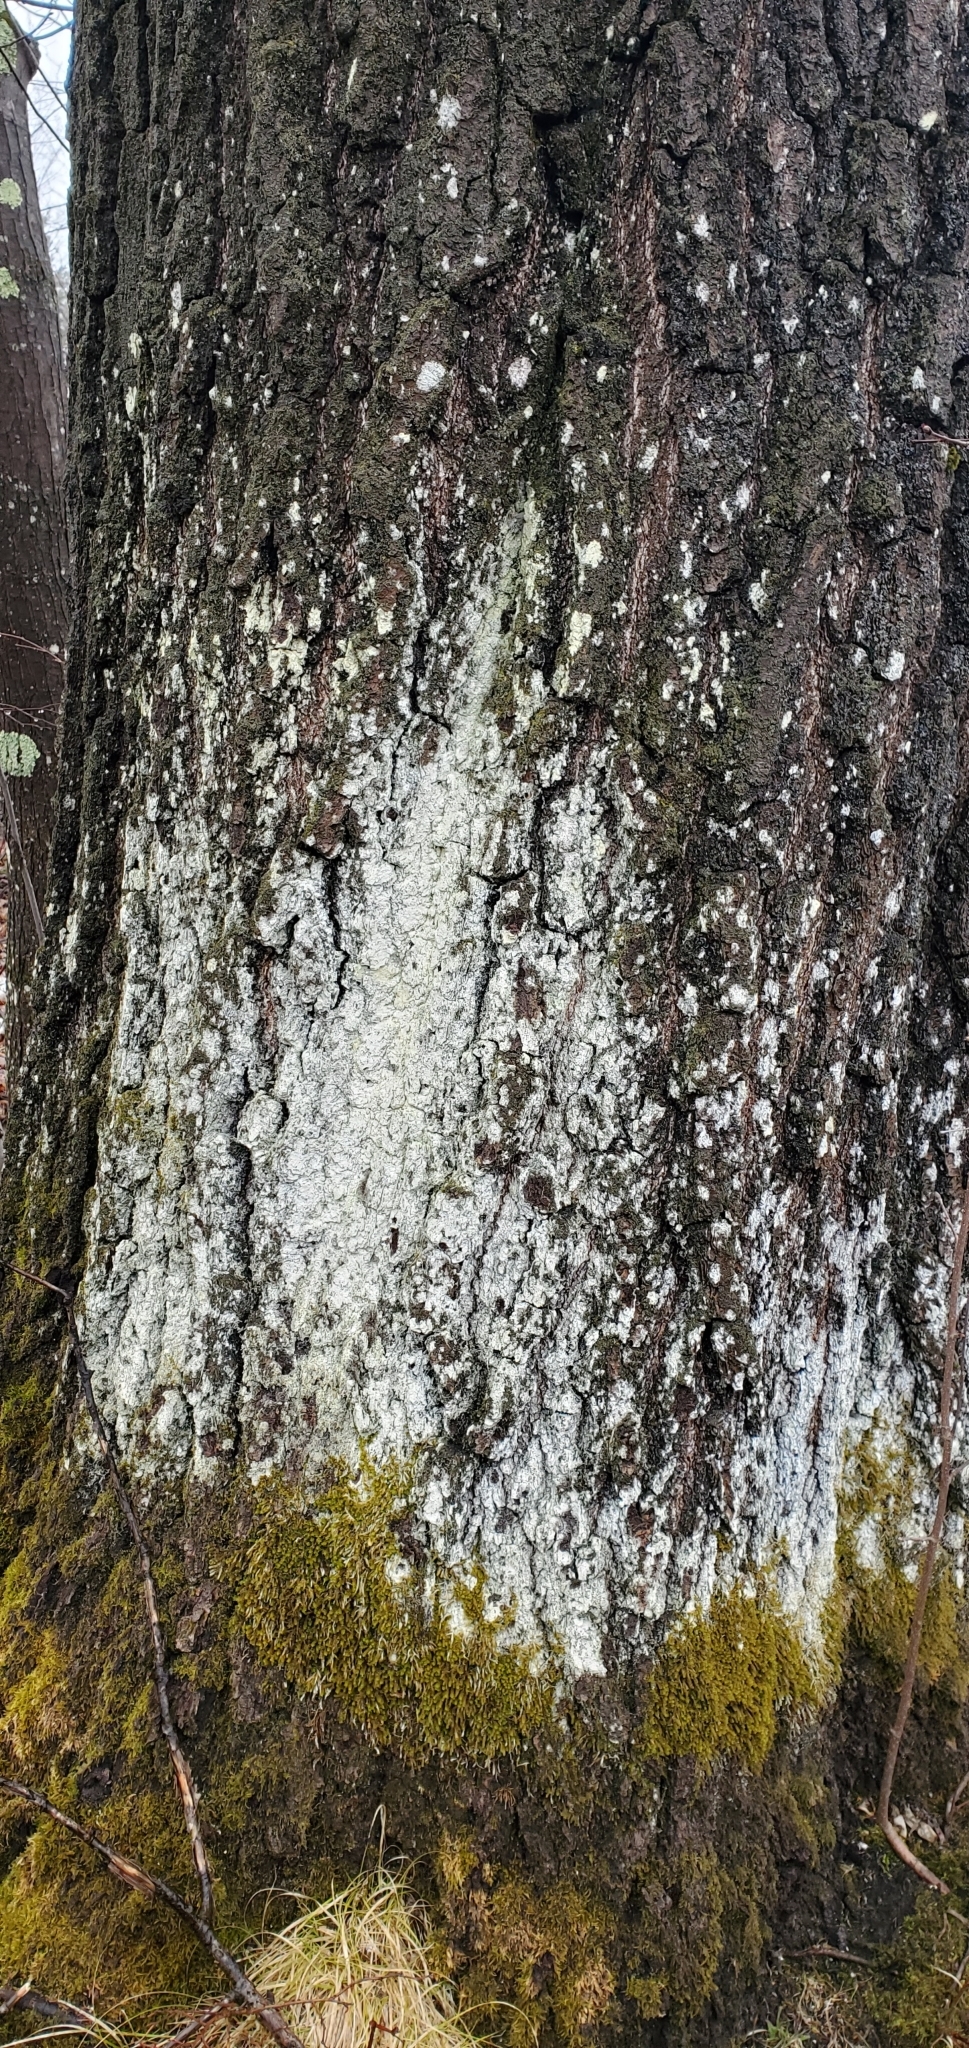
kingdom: Fungi
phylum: Ascomycota
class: Lecanoromycetes
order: Lecanorales
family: Stereocaulaceae
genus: Lepraria
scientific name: Lepraria lobificans
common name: Fluffy dust lichen
